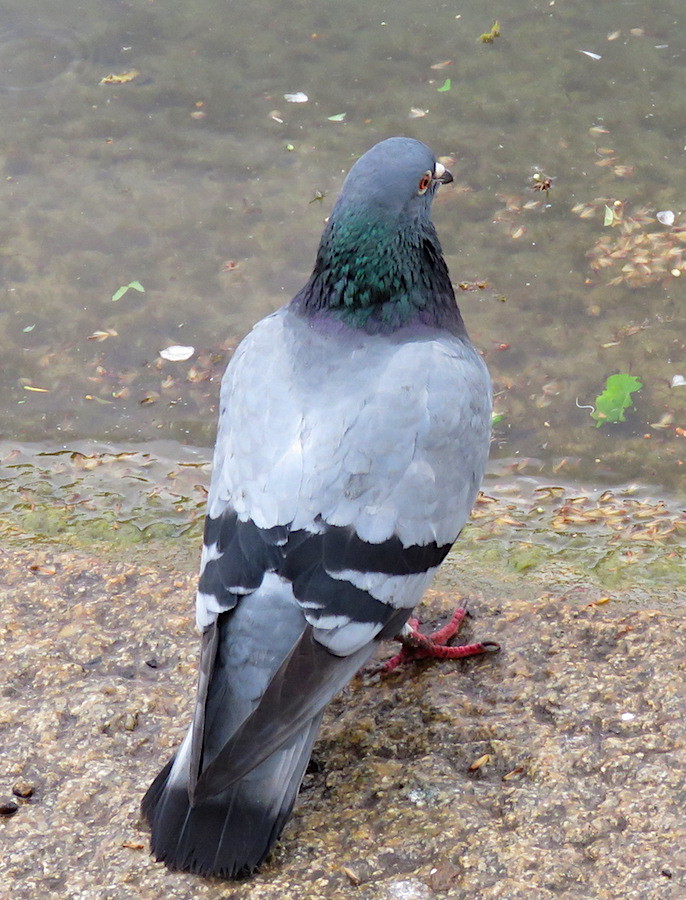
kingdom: Animalia
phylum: Chordata
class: Aves
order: Columbiformes
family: Columbidae
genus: Columba
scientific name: Columba livia
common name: Rock pigeon
